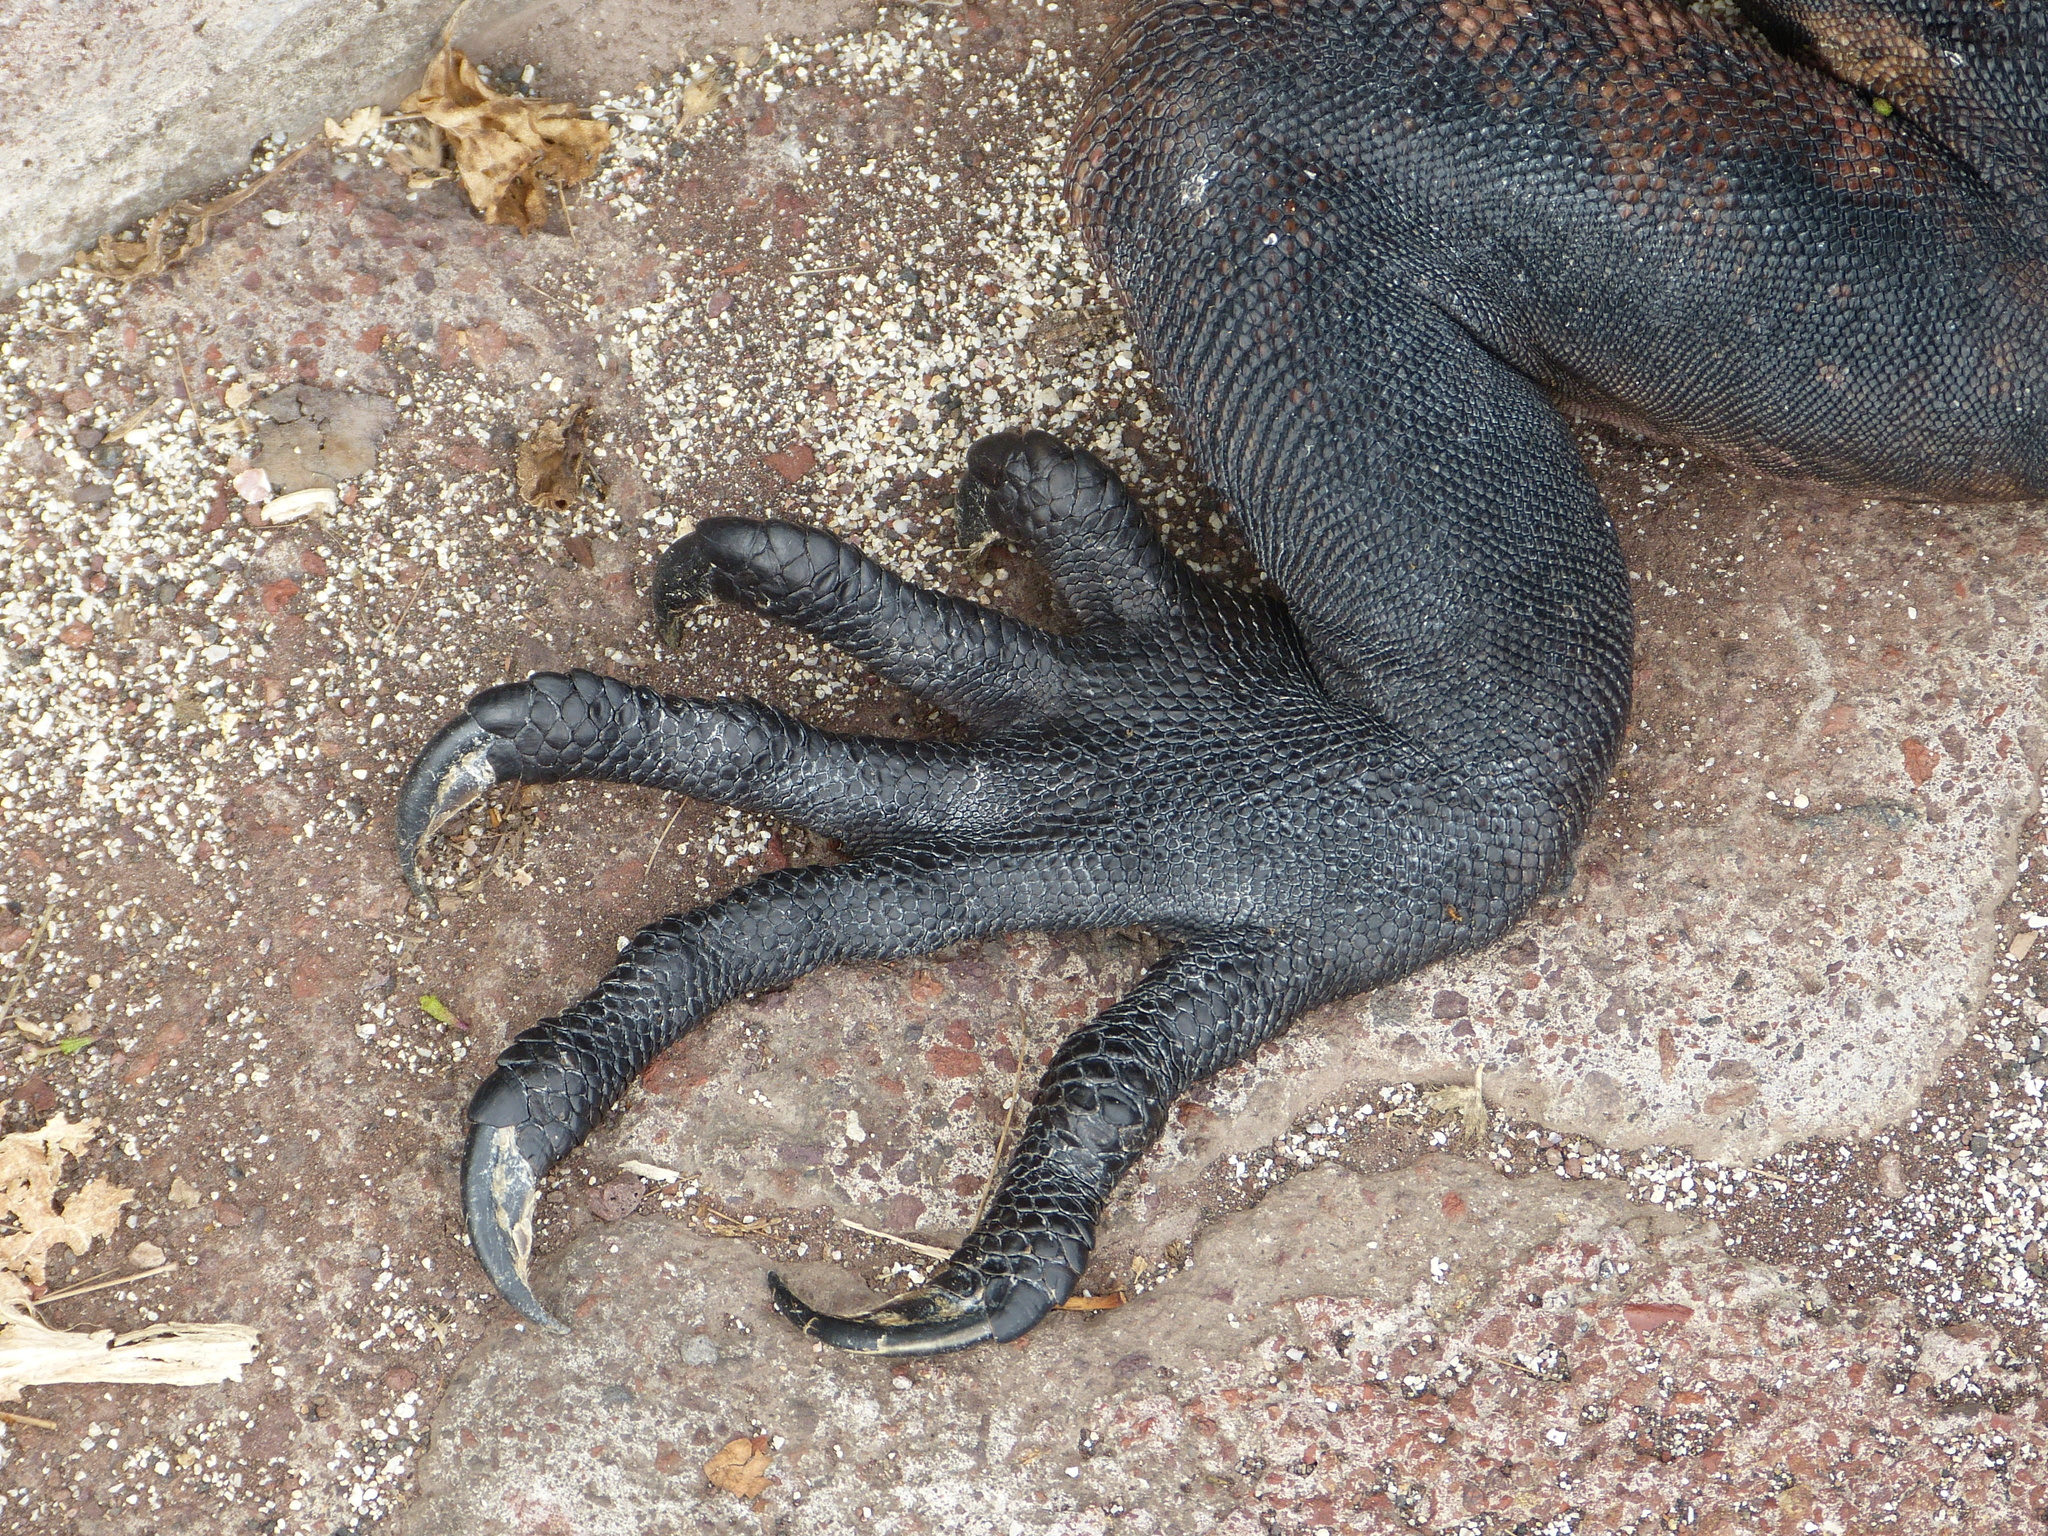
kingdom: Animalia
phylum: Chordata
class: Squamata
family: Iguanidae
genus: Amblyrhynchus
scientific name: Amblyrhynchus cristatus
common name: Marine iguana
